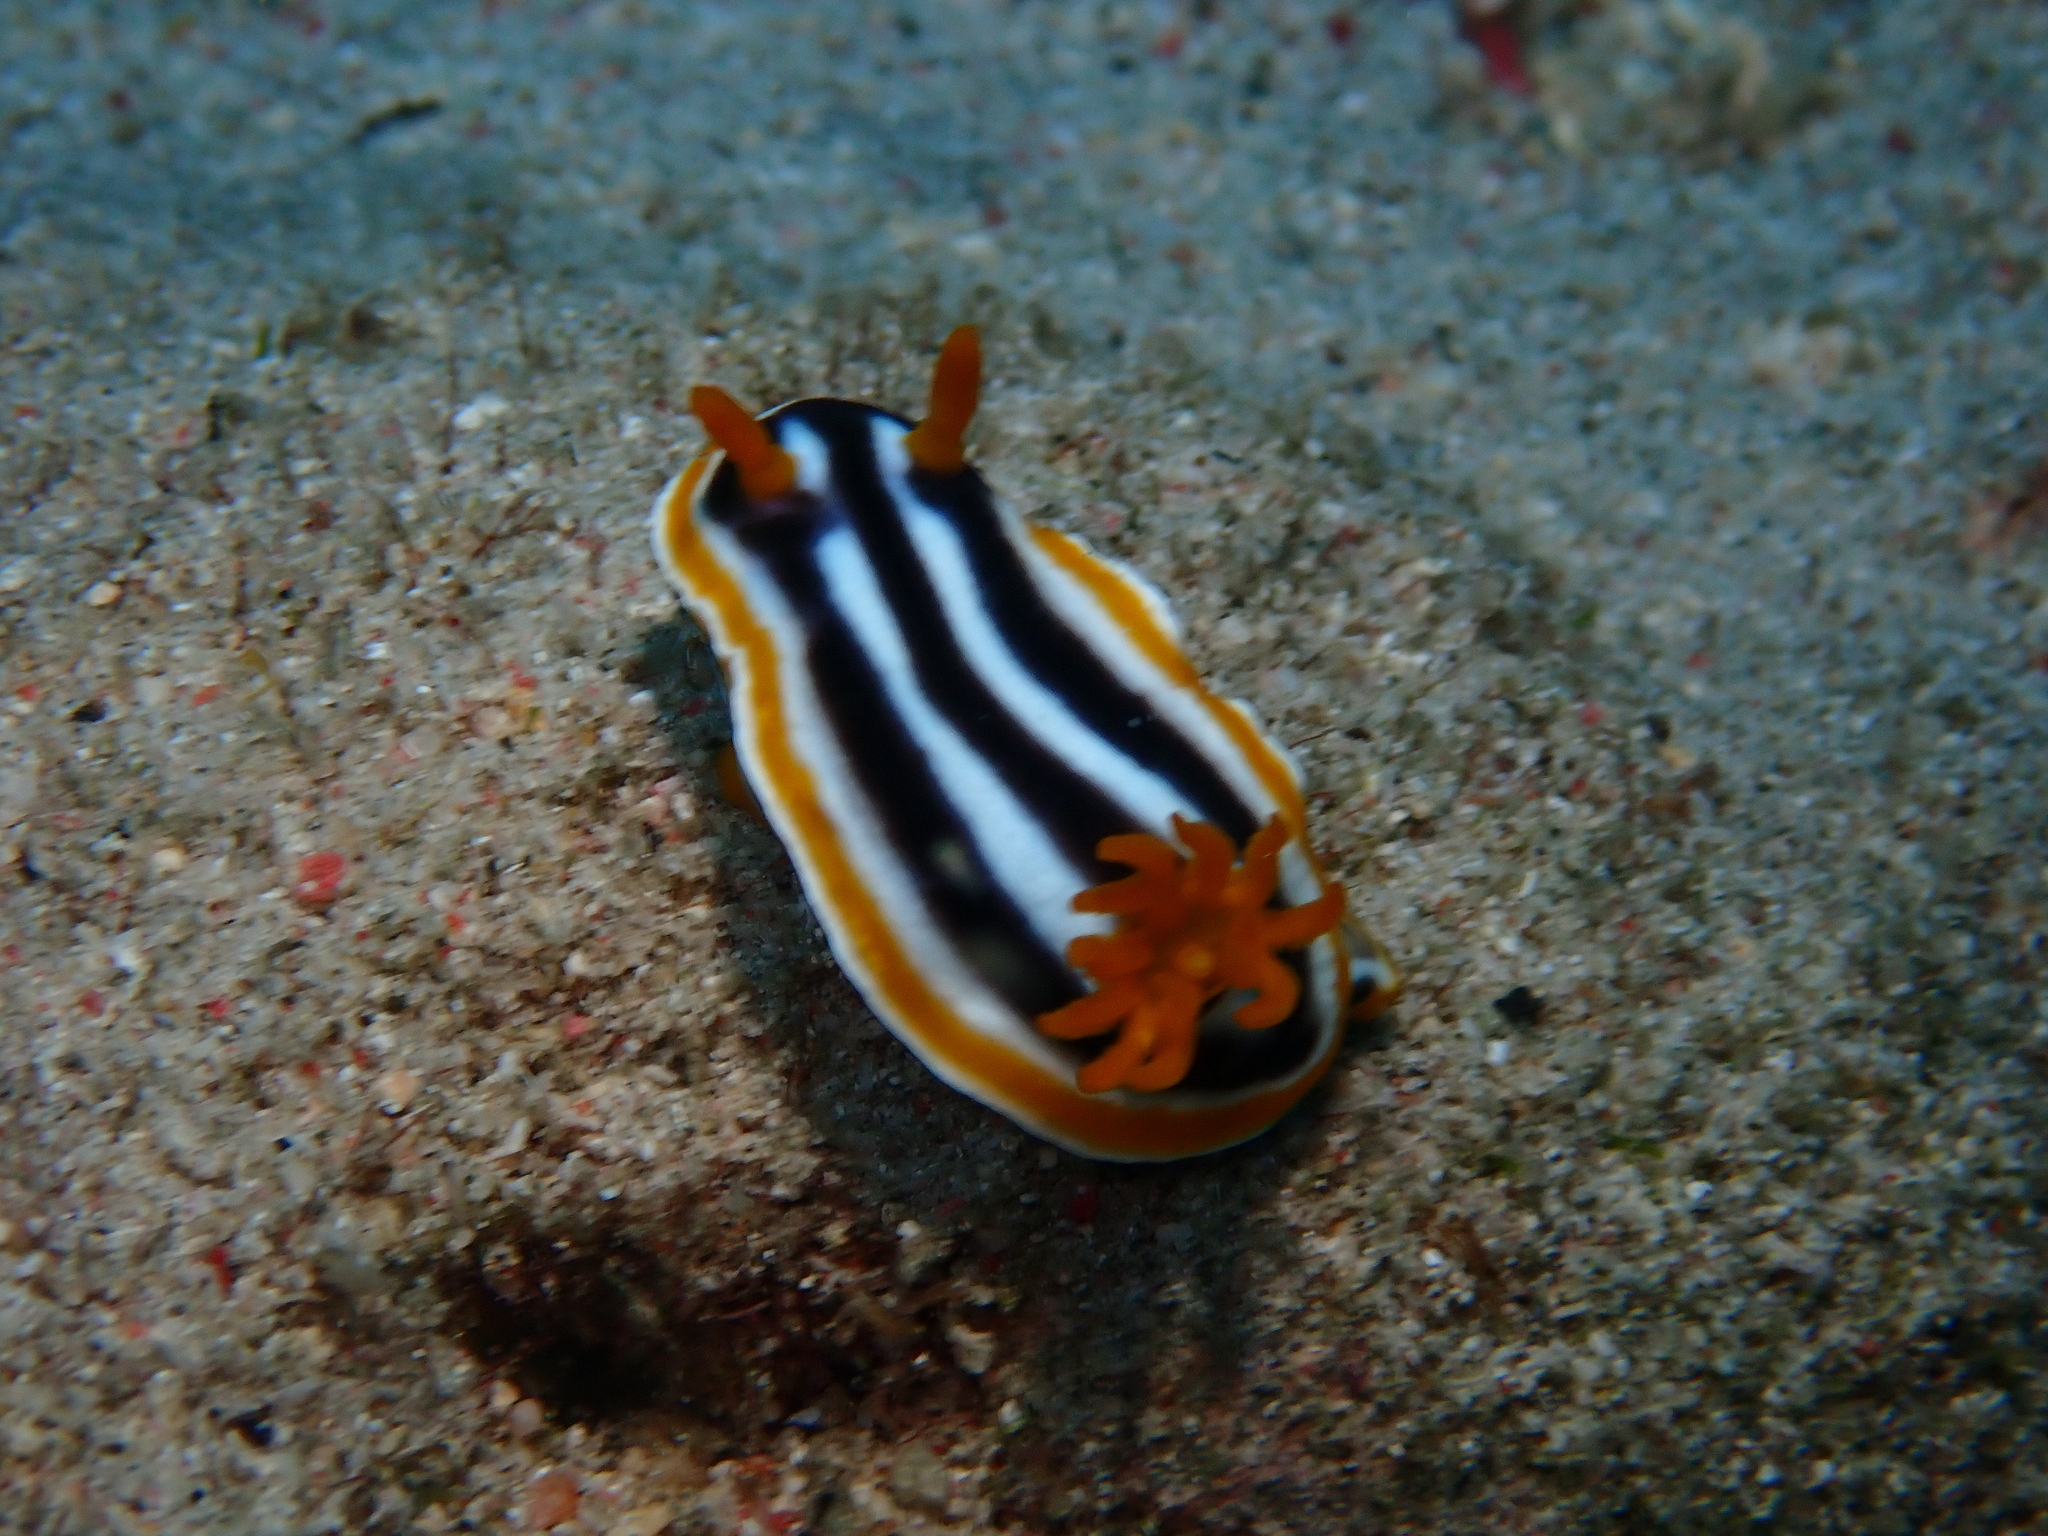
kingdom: Animalia
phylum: Mollusca
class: Gastropoda
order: Nudibranchia
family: Chromodorididae
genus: Chromodoris
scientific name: Chromodoris magnifica
